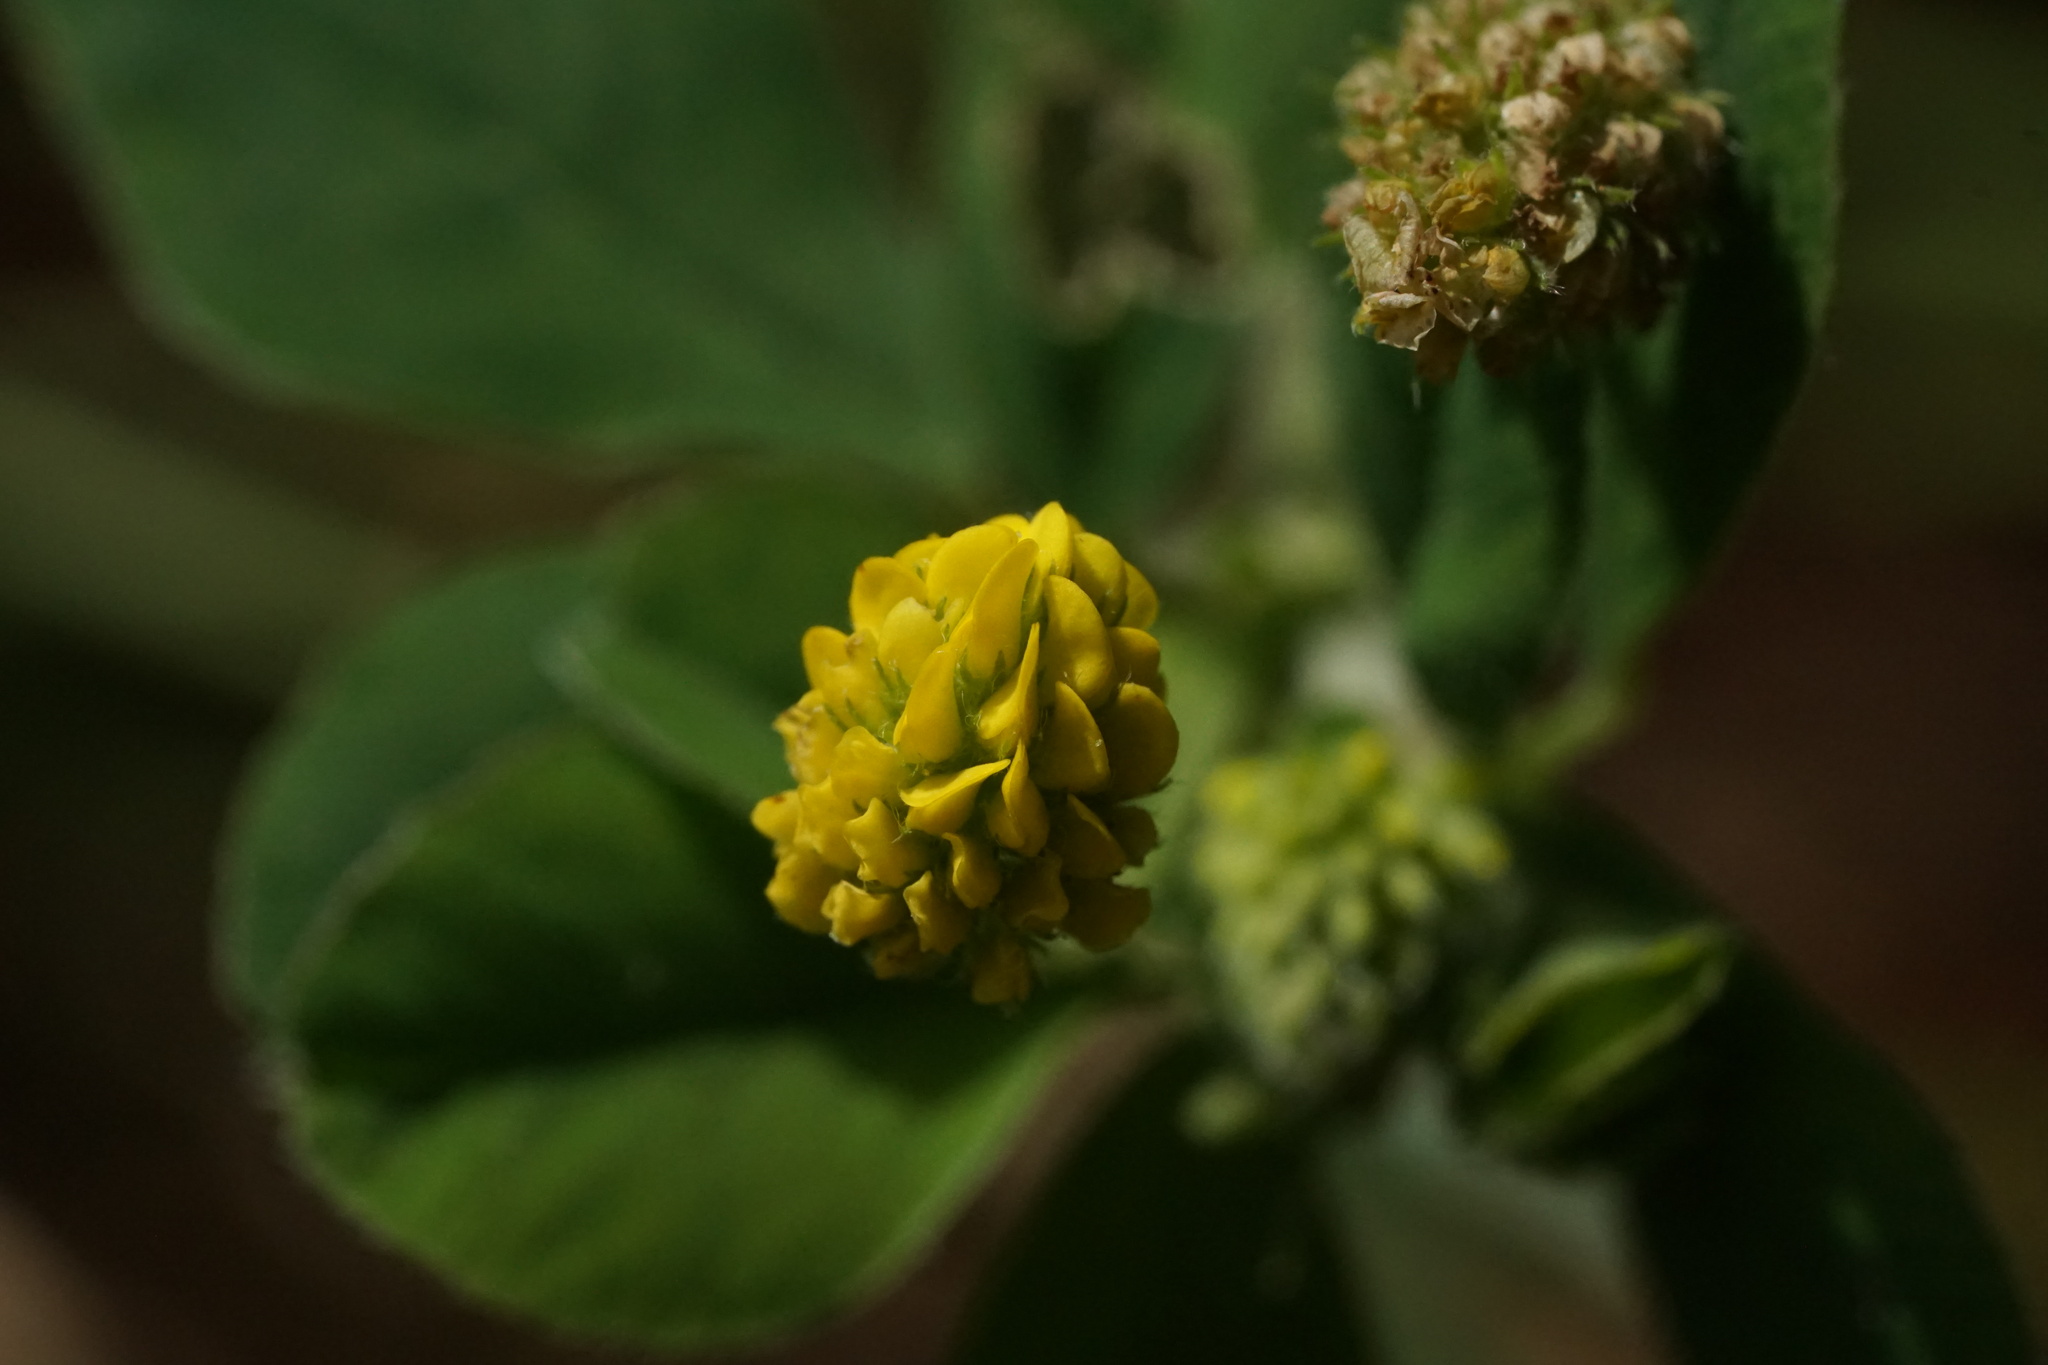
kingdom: Plantae
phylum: Tracheophyta
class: Magnoliopsida
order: Fabales
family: Fabaceae
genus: Medicago
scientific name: Medicago lupulina
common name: Black medick
